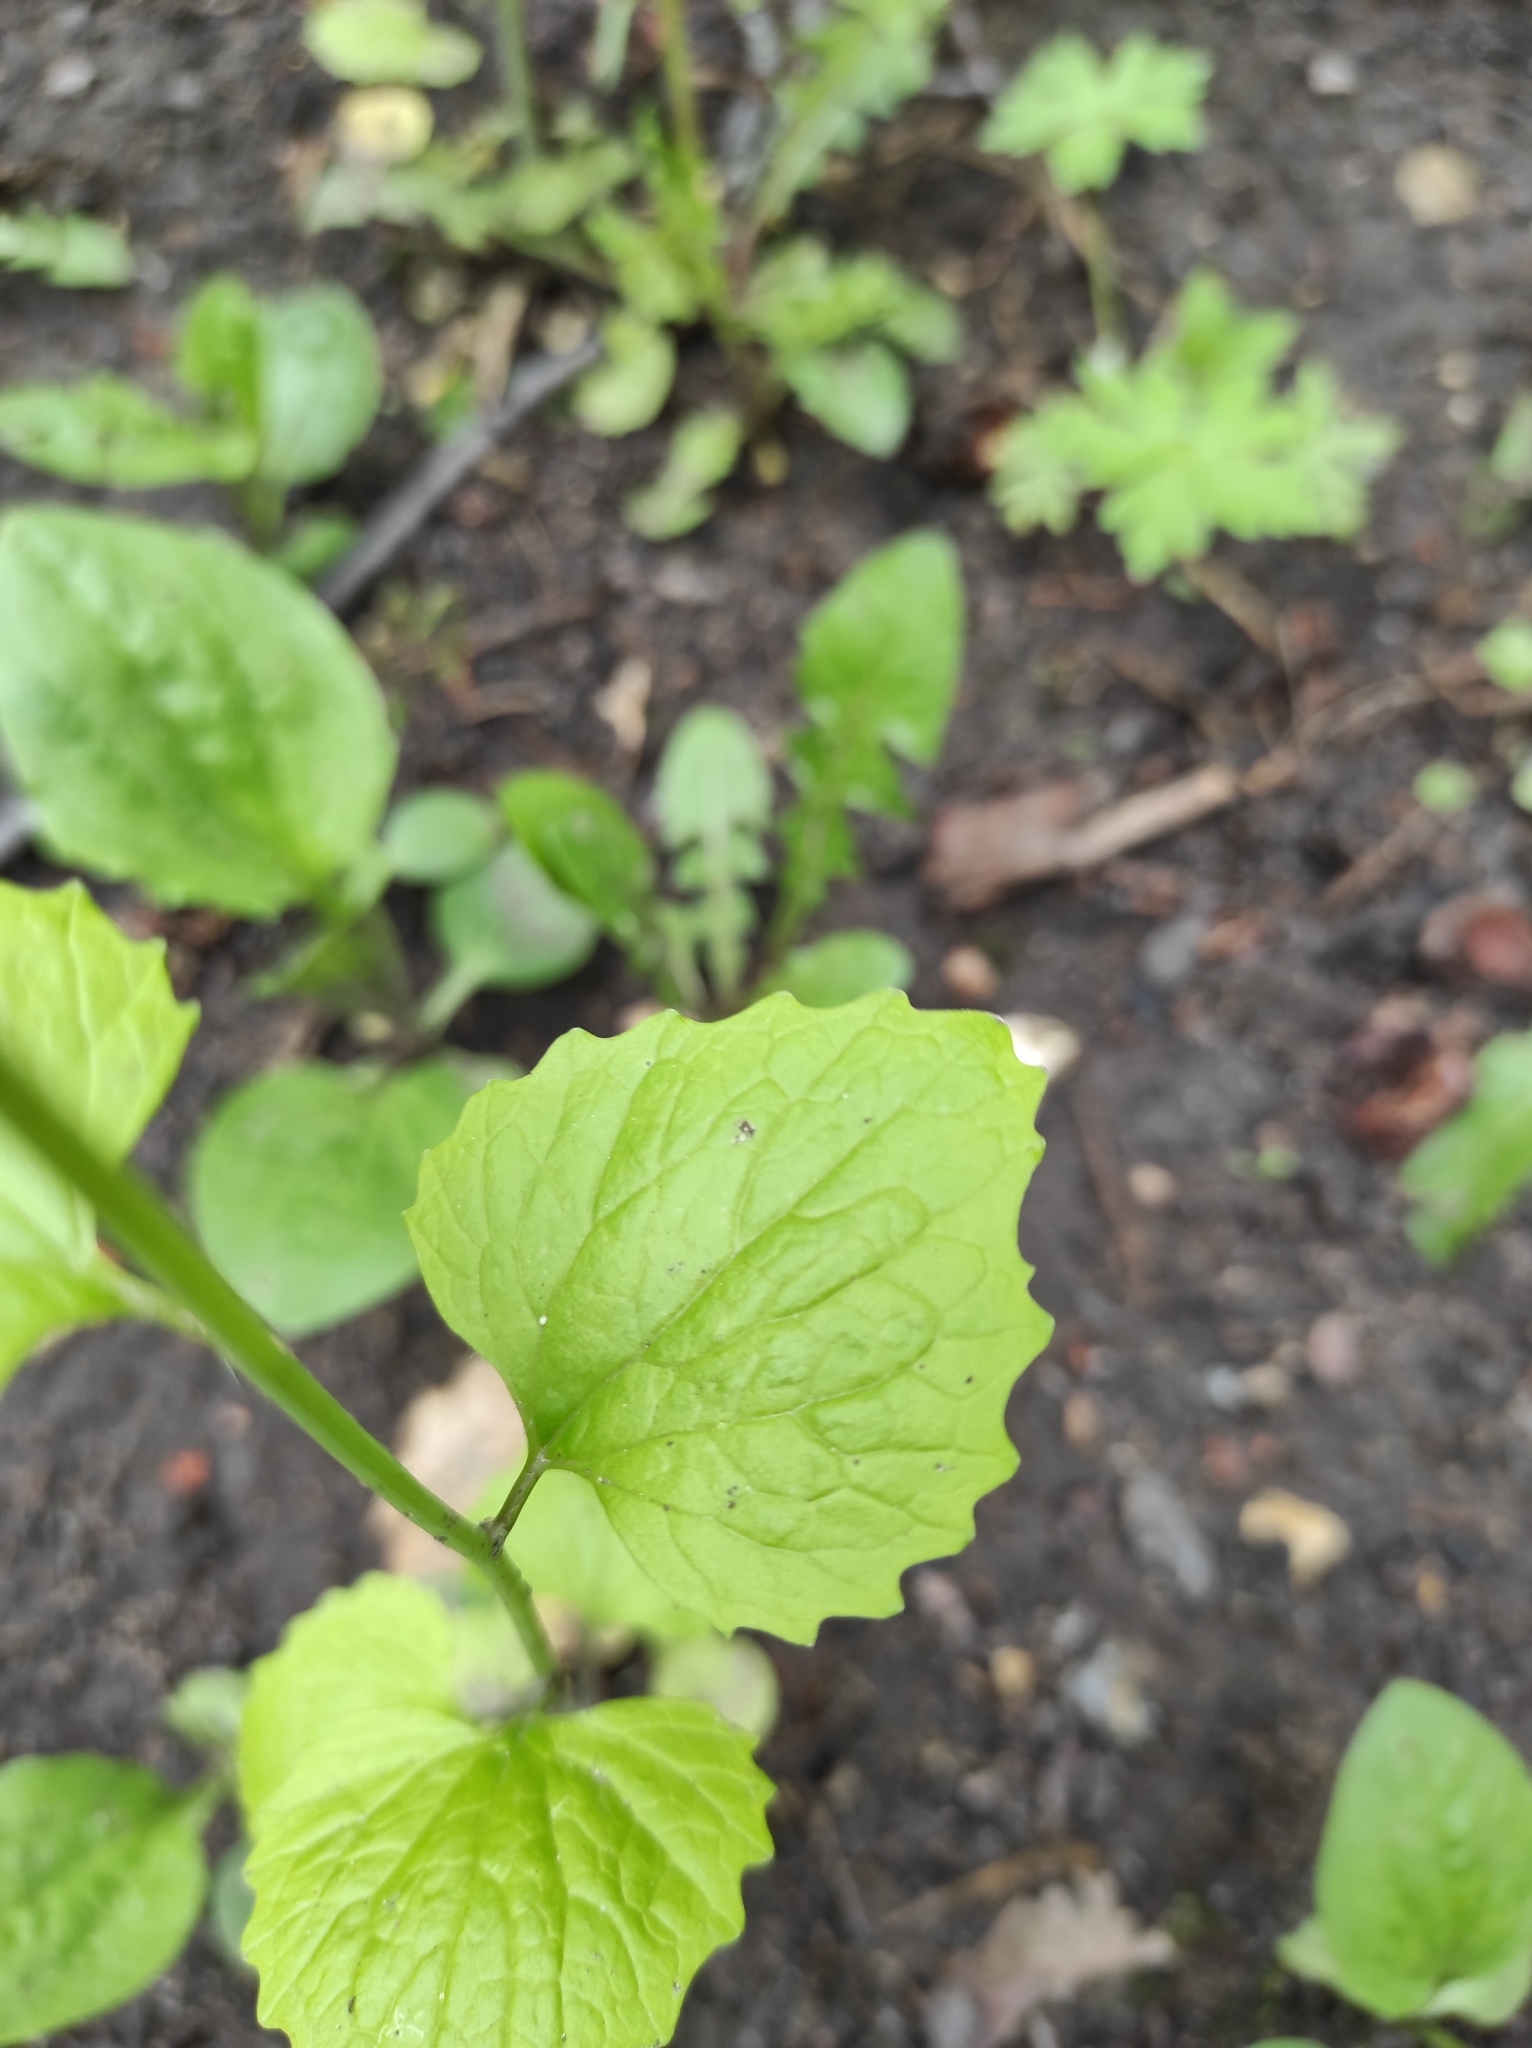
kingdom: Plantae
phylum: Tracheophyta
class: Magnoliopsida
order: Brassicales
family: Brassicaceae
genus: Alliaria
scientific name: Alliaria petiolata
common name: Garlic mustard
